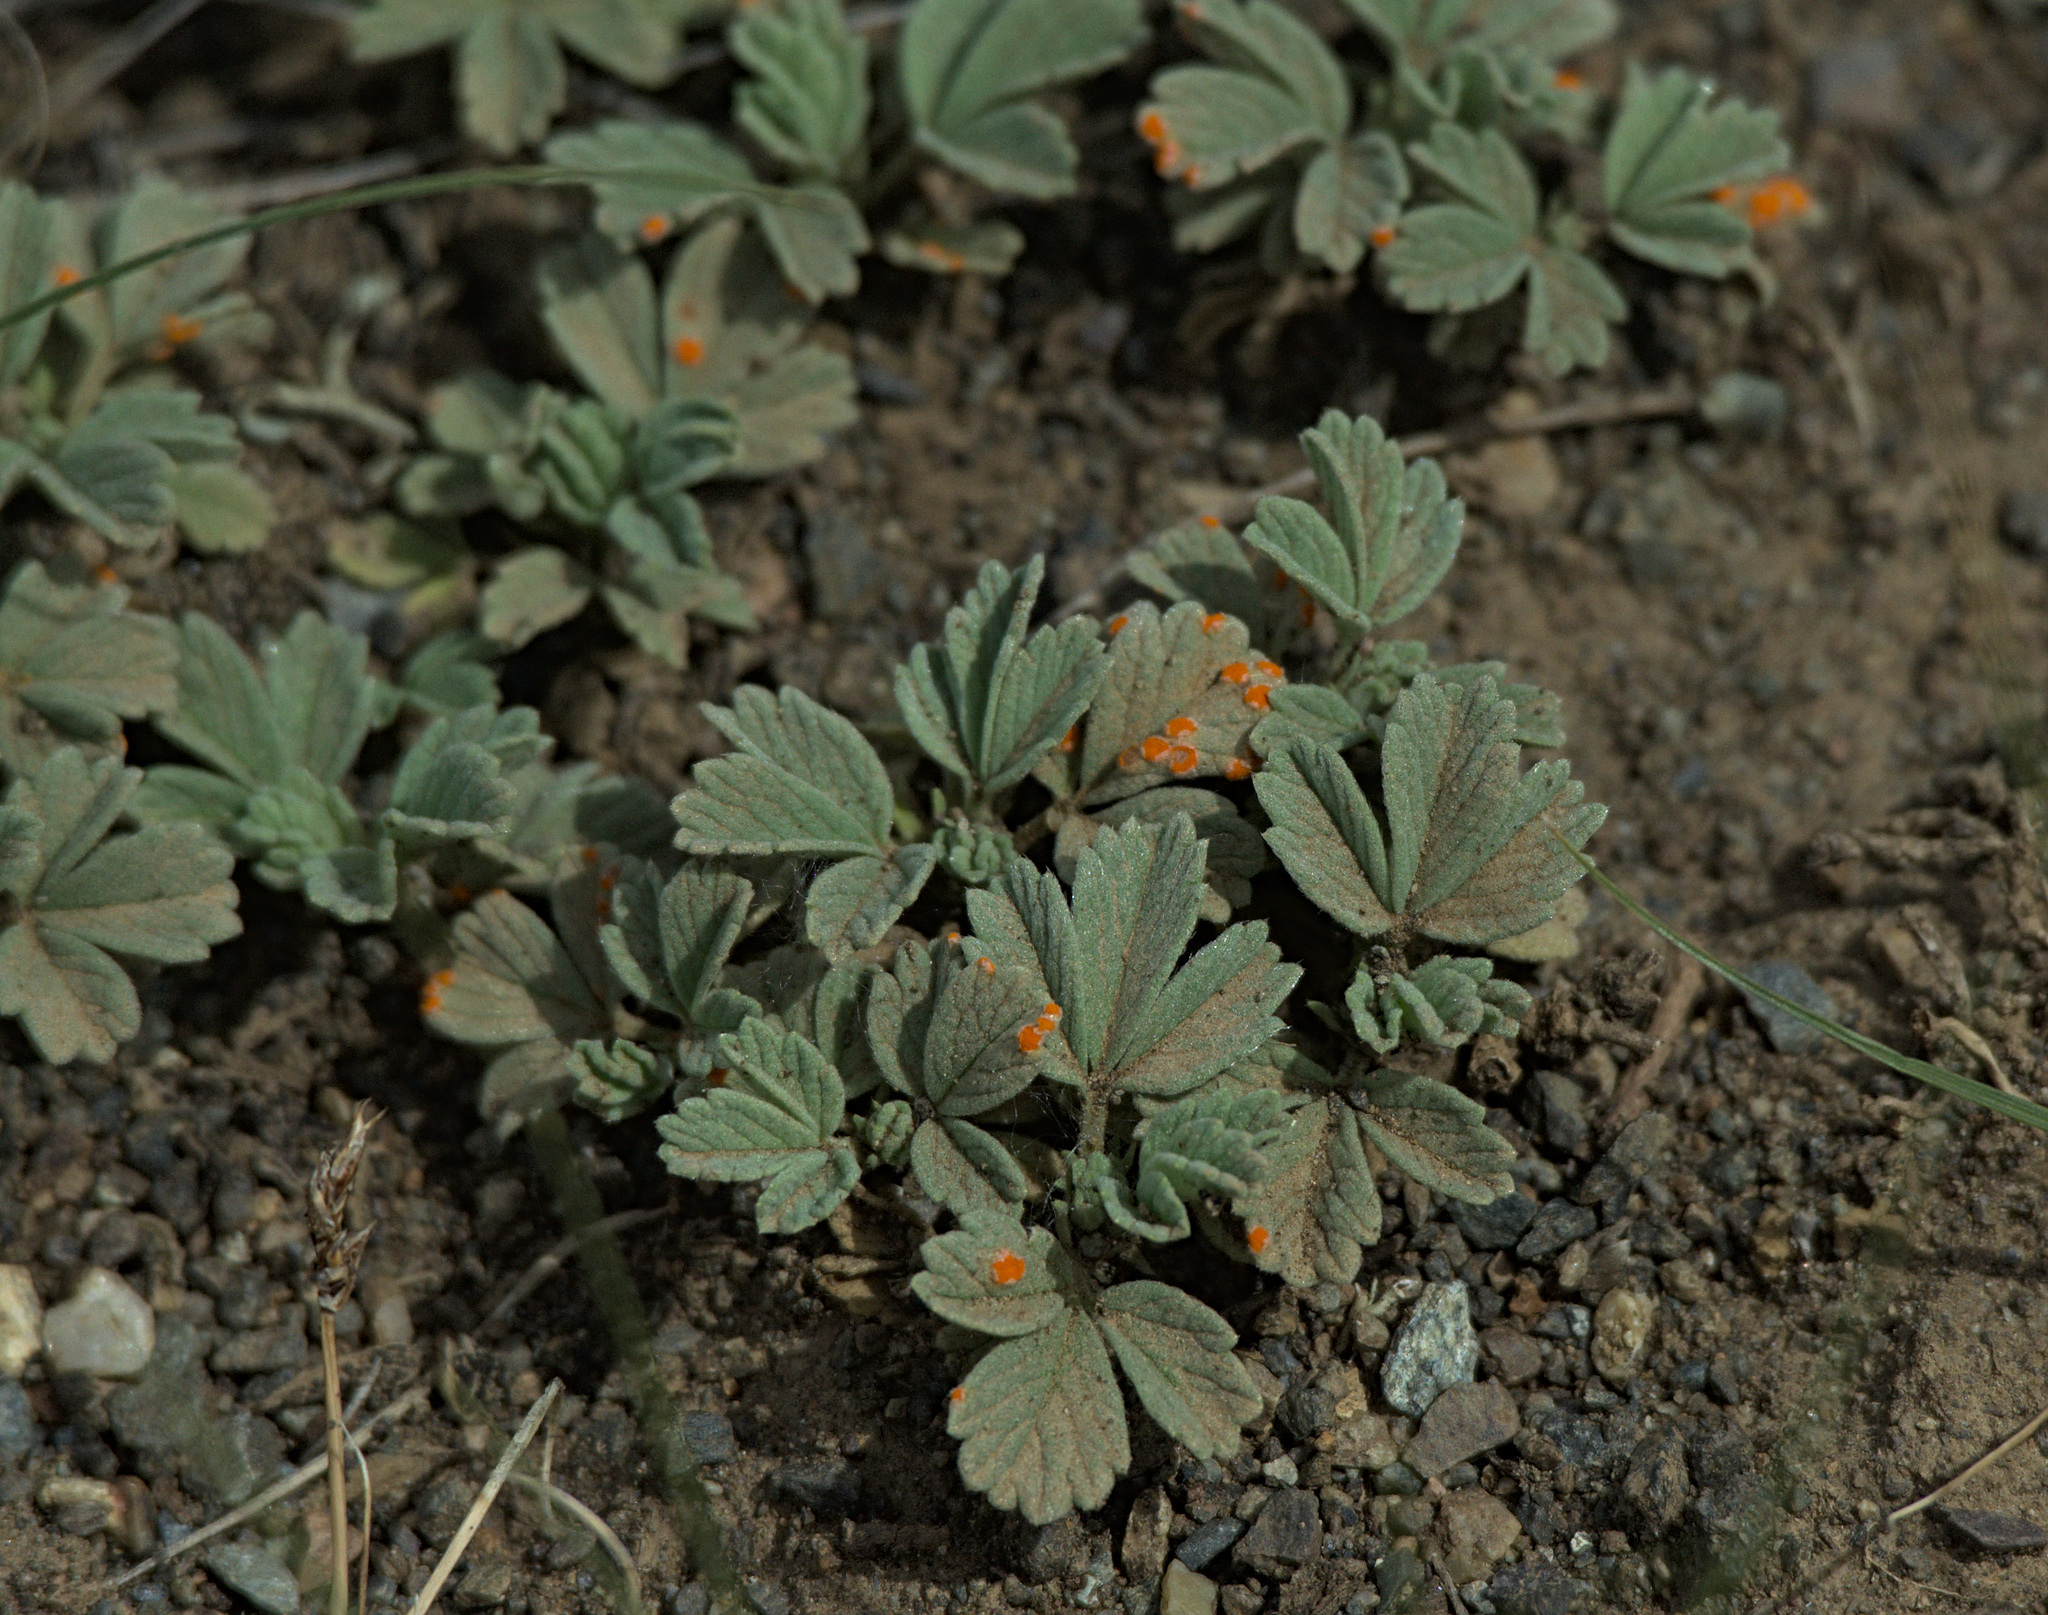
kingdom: Plantae
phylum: Tracheophyta
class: Magnoliopsida
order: Rosales
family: Rosaceae
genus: Potentilla
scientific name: Potentilla acaulis
